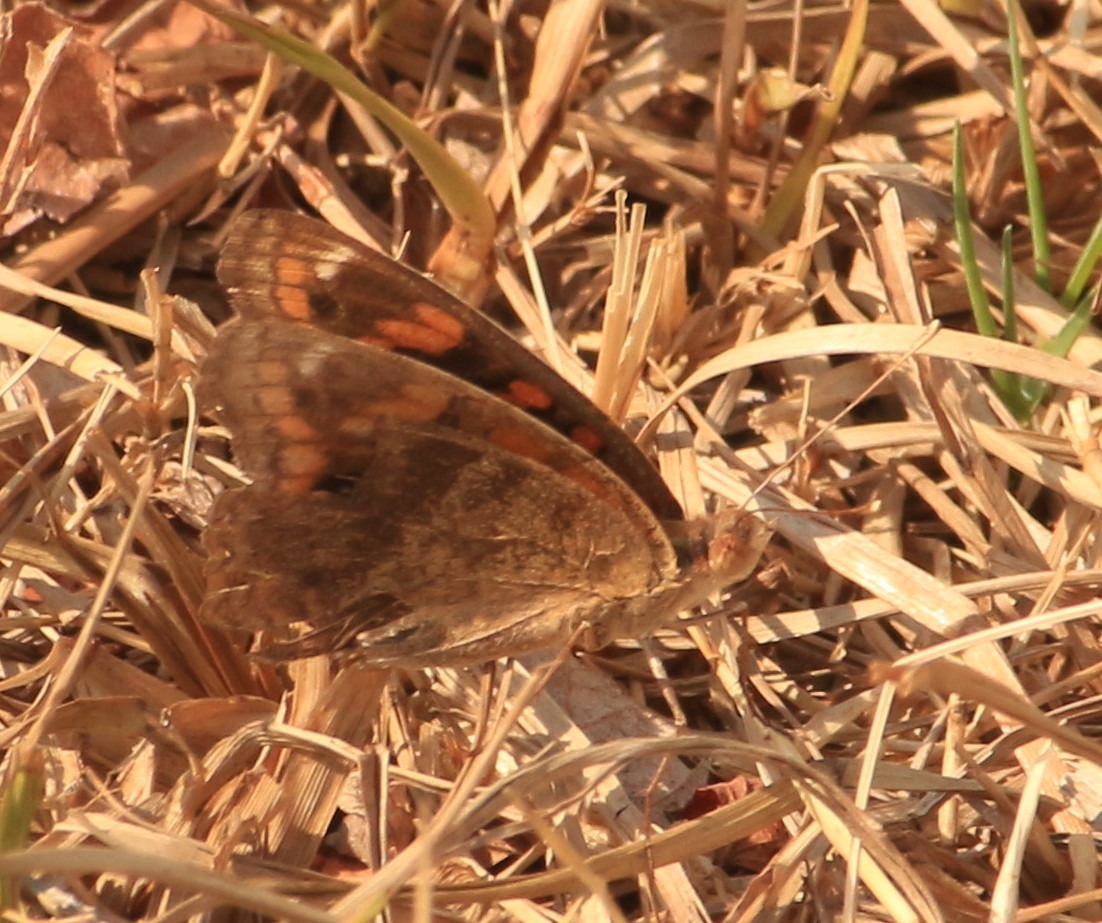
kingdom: Animalia
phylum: Arthropoda
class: Insecta
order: Lepidoptera
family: Nymphalidae
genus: Junonia
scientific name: Junonia lavinia
